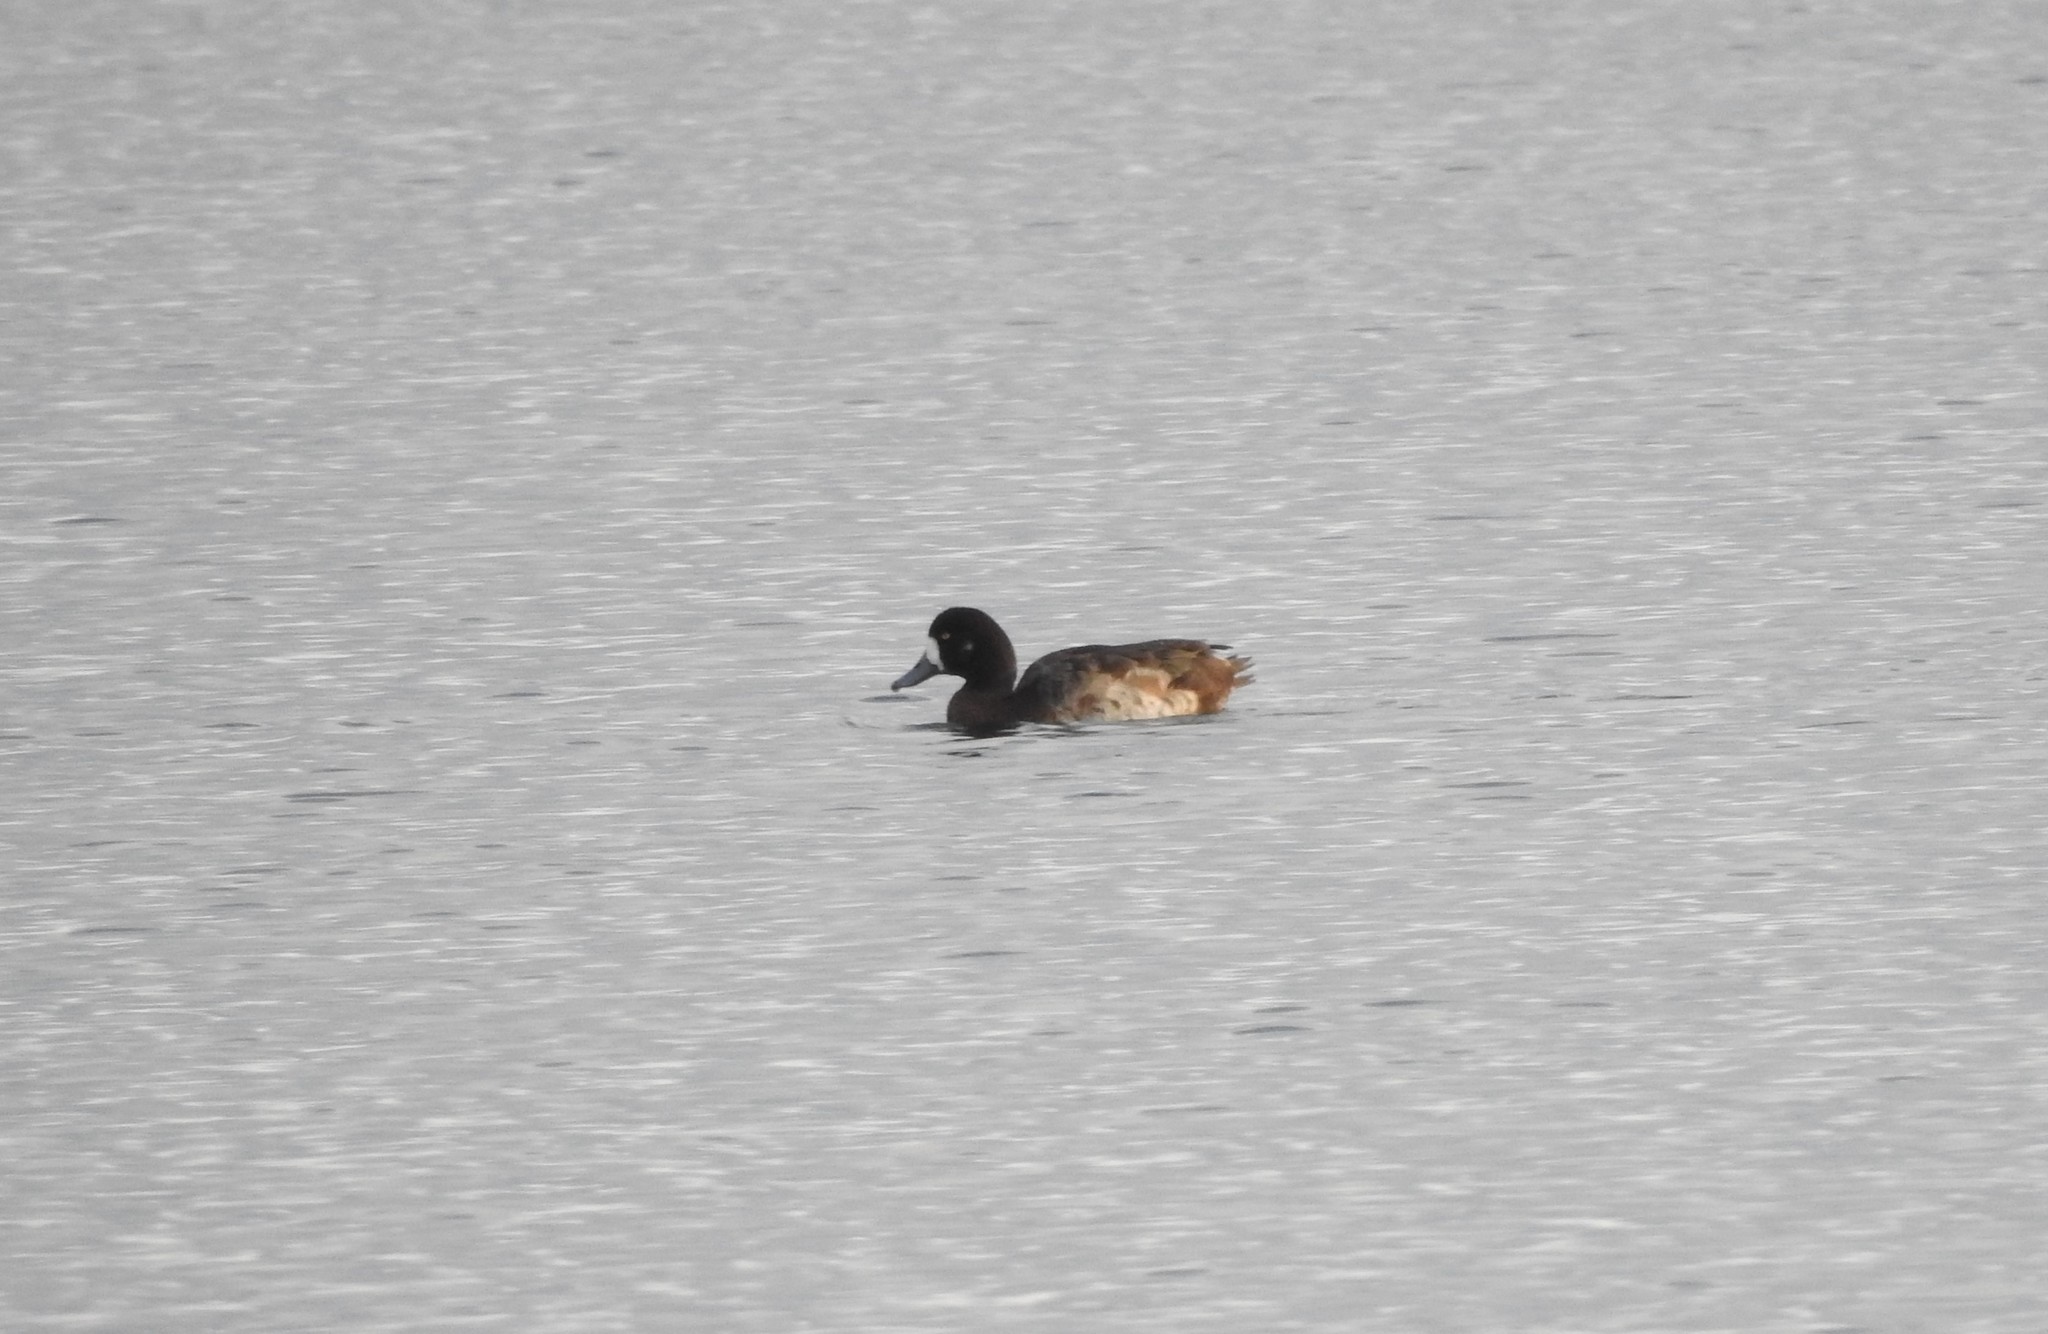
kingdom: Animalia
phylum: Chordata
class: Aves
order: Anseriformes
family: Anatidae
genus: Aythya
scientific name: Aythya marila
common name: Greater scaup
